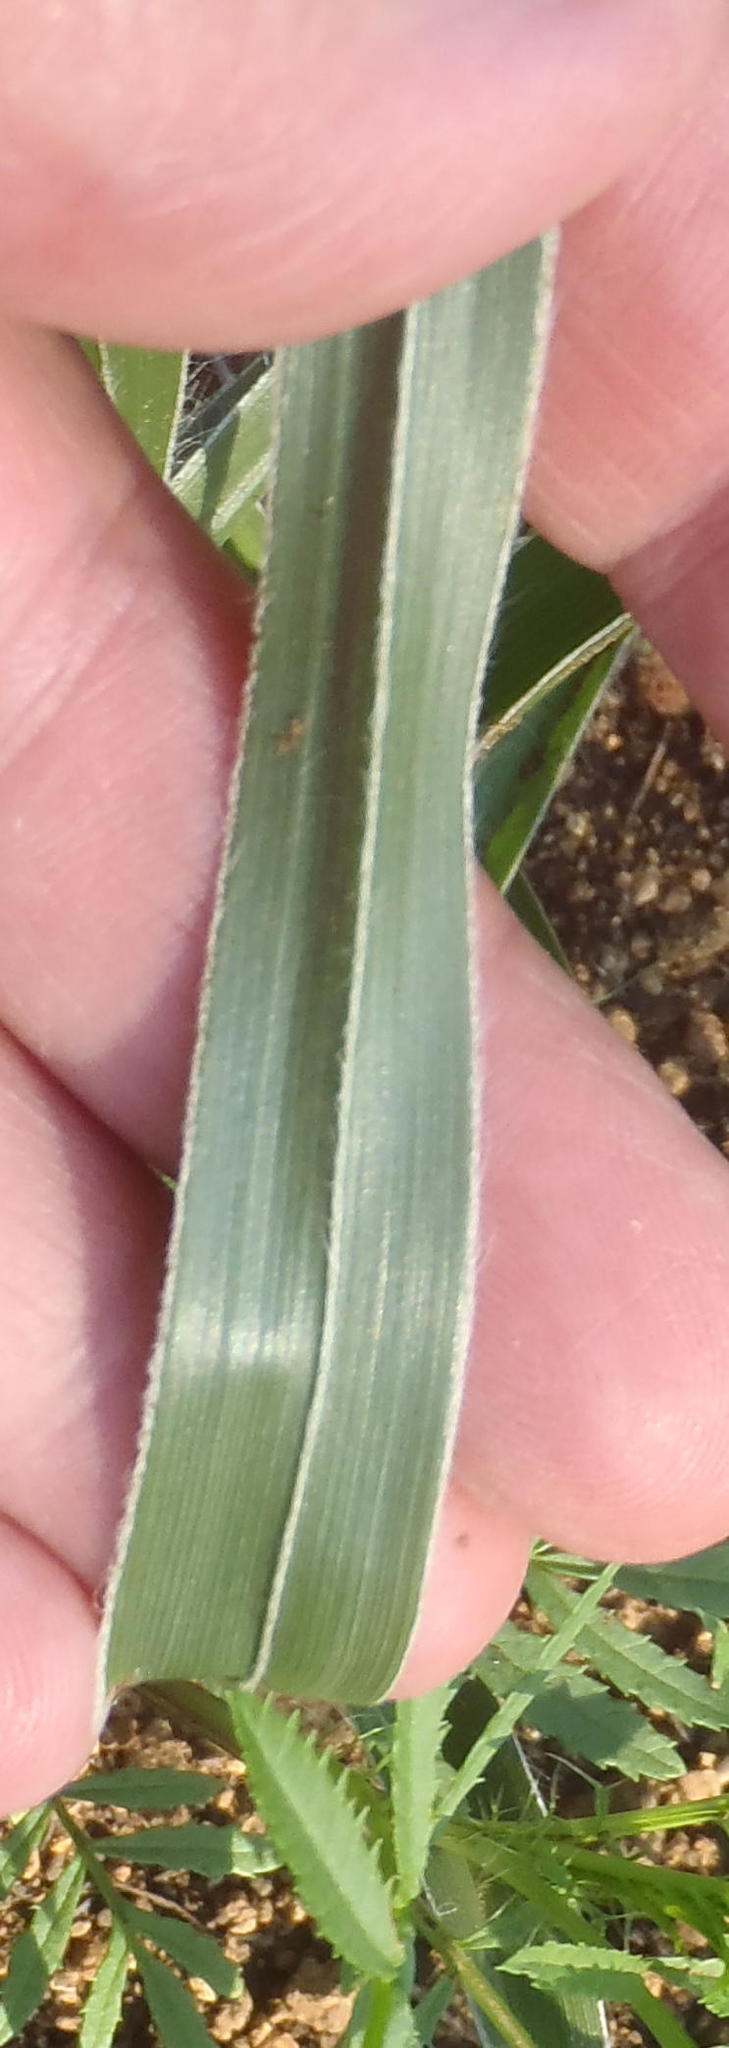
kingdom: Plantae
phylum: Tracheophyta
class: Liliopsida
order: Asparagales
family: Hypoxidaceae
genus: Hypoxis
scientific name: Hypoxis obtusa
